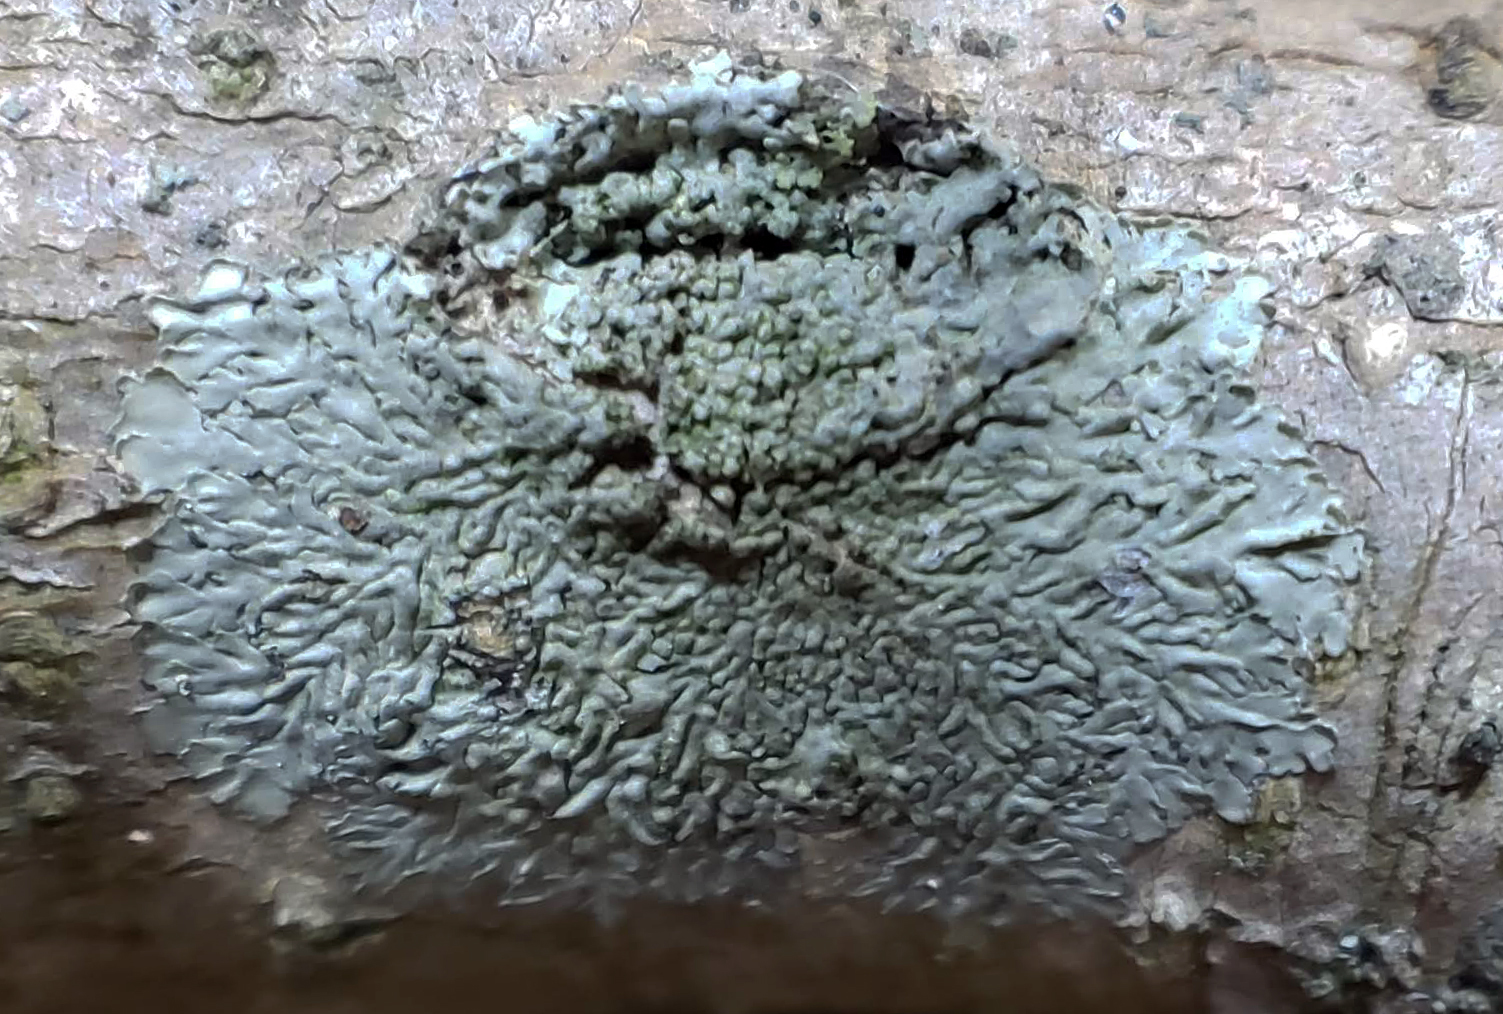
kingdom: Fungi
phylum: Ascomycota
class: Lecanoromycetes
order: Caliciales
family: Physciaceae
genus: Hyperphyscia
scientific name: Hyperphyscia syncolla
